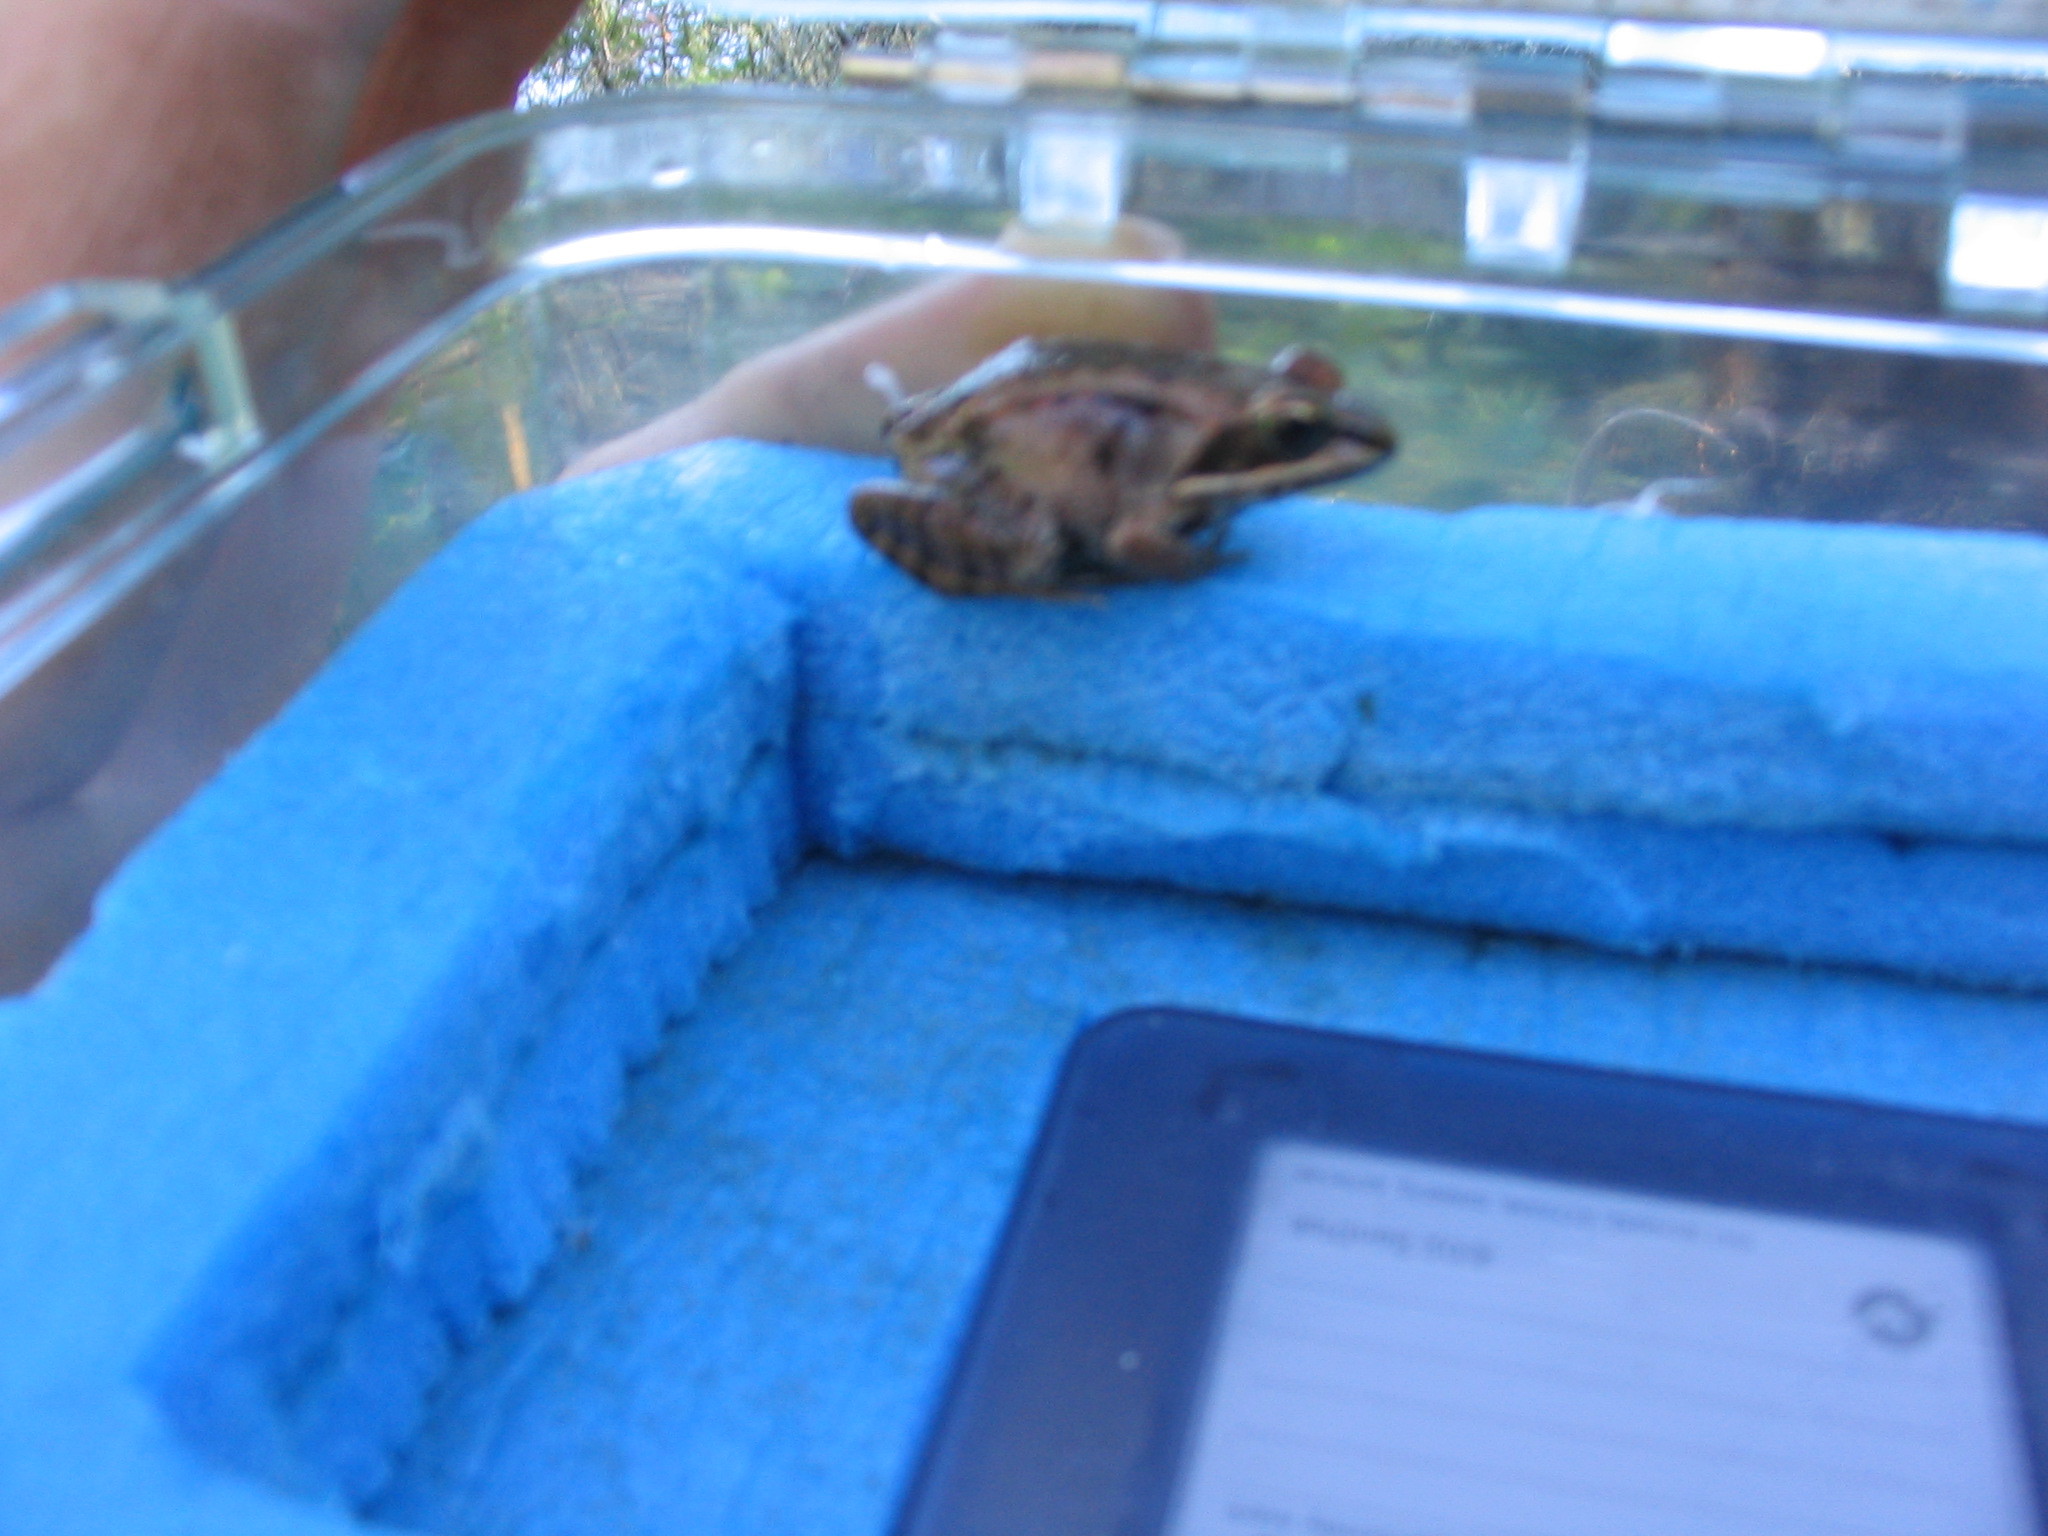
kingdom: Animalia
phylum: Chordata
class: Amphibia
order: Anura
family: Ranidae
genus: Lithobates
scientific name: Lithobates sylvaticus
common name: Wood frog
